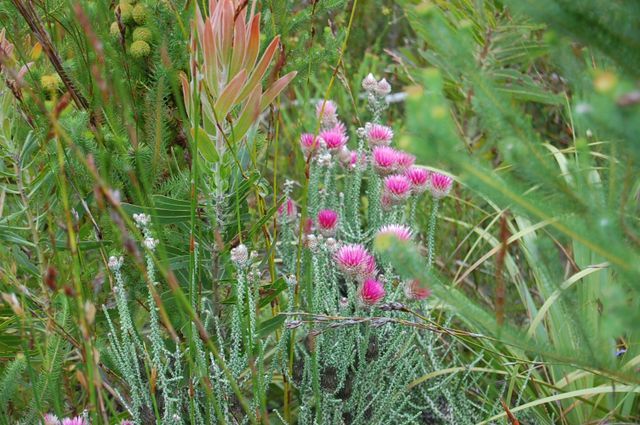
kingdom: Plantae
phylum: Tracheophyta
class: Magnoliopsida
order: Asterales
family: Asteraceae
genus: Phaenocoma
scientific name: Phaenocoma prolifera
